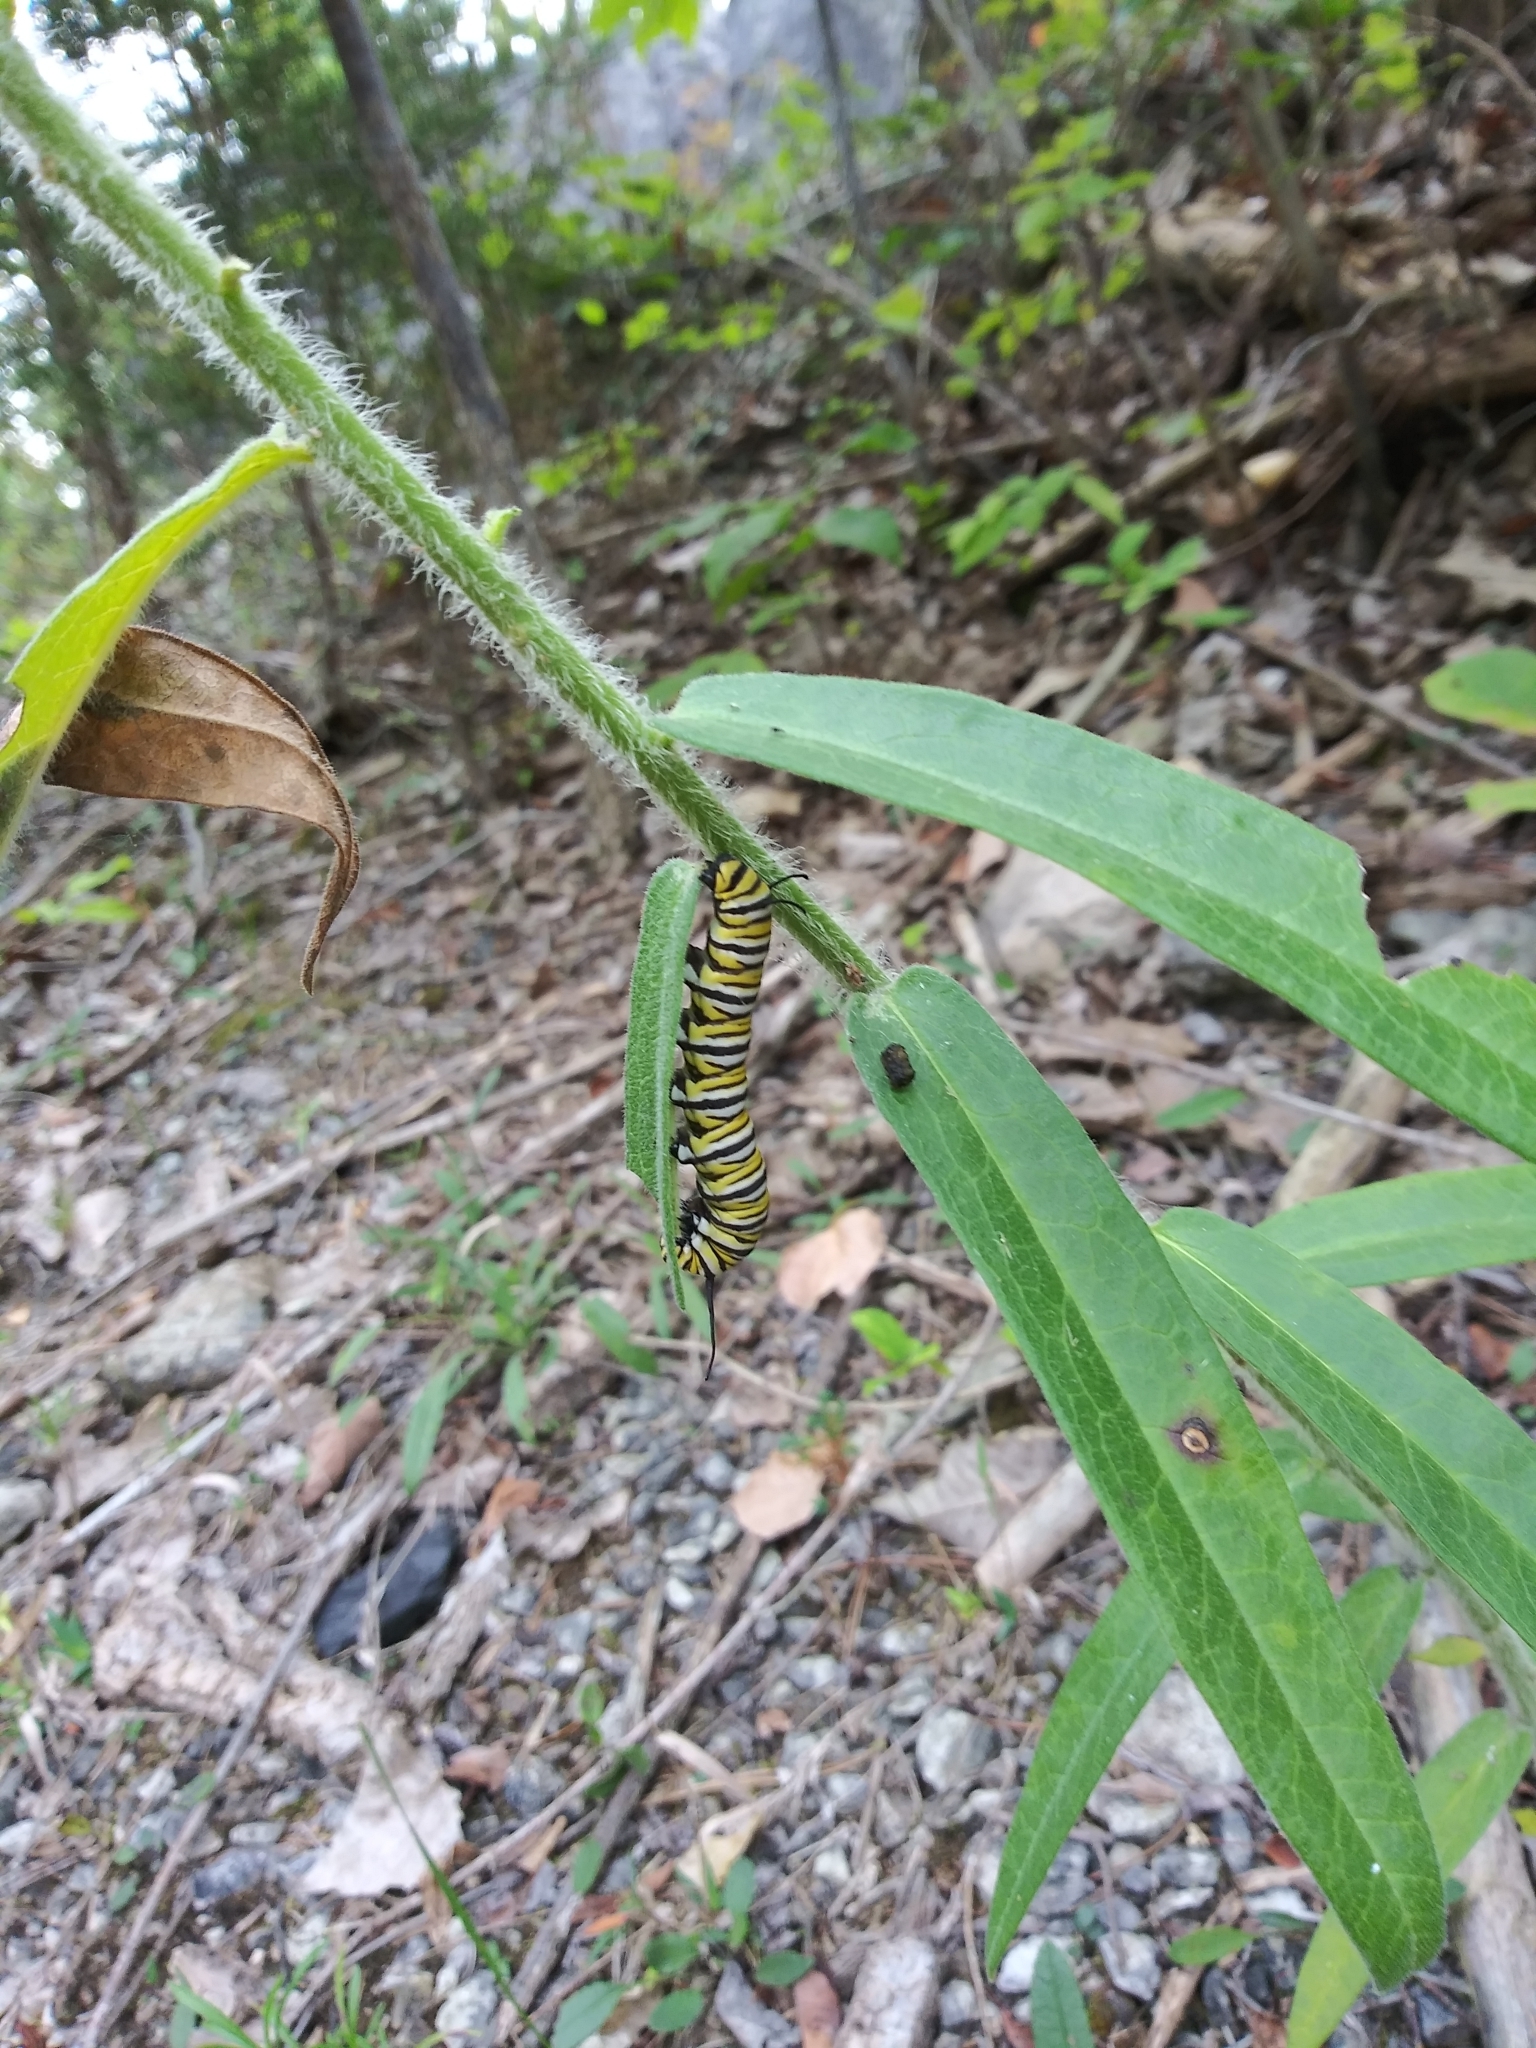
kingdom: Animalia
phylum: Arthropoda
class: Insecta
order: Lepidoptera
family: Nymphalidae
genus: Danaus
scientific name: Danaus plexippus
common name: Monarch
